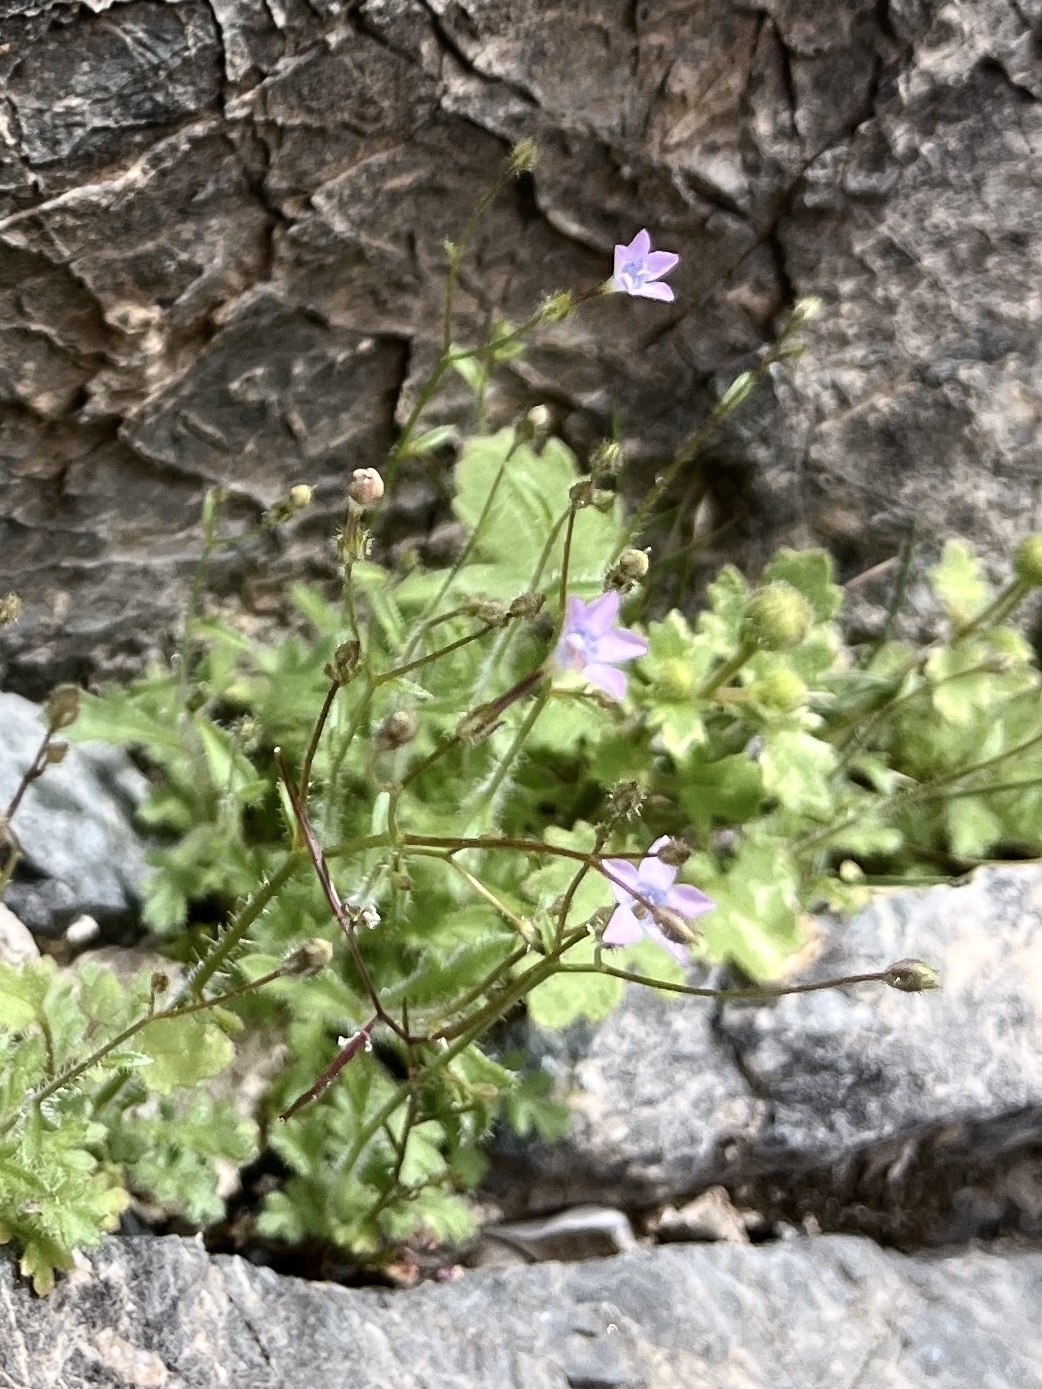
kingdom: Plantae
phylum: Tracheophyta
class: Magnoliopsida
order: Ericales
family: Polemoniaceae
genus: Gilia
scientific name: Gilia scopulorum
